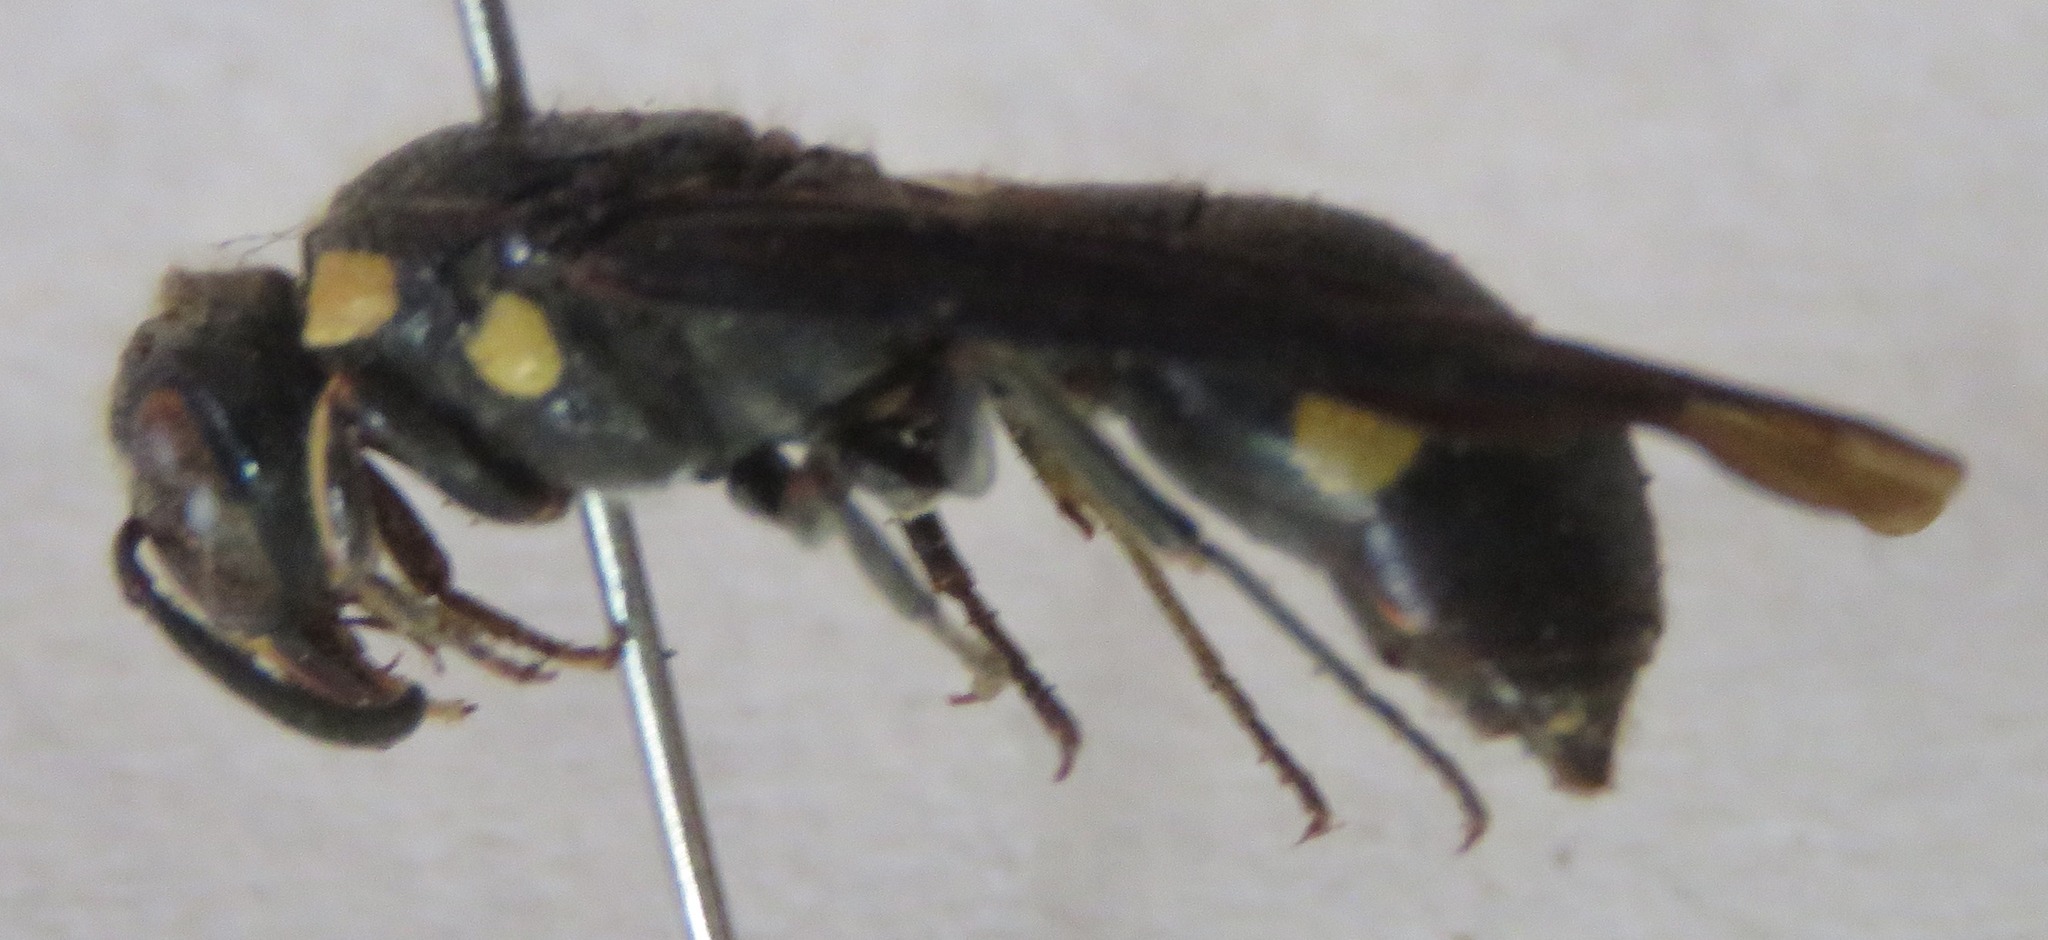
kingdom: Animalia
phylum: Arthropoda
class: Insecta
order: Hymenoptera
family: Eumenidae
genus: Pseudodynerus
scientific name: Pseudodynerus maxillaris
